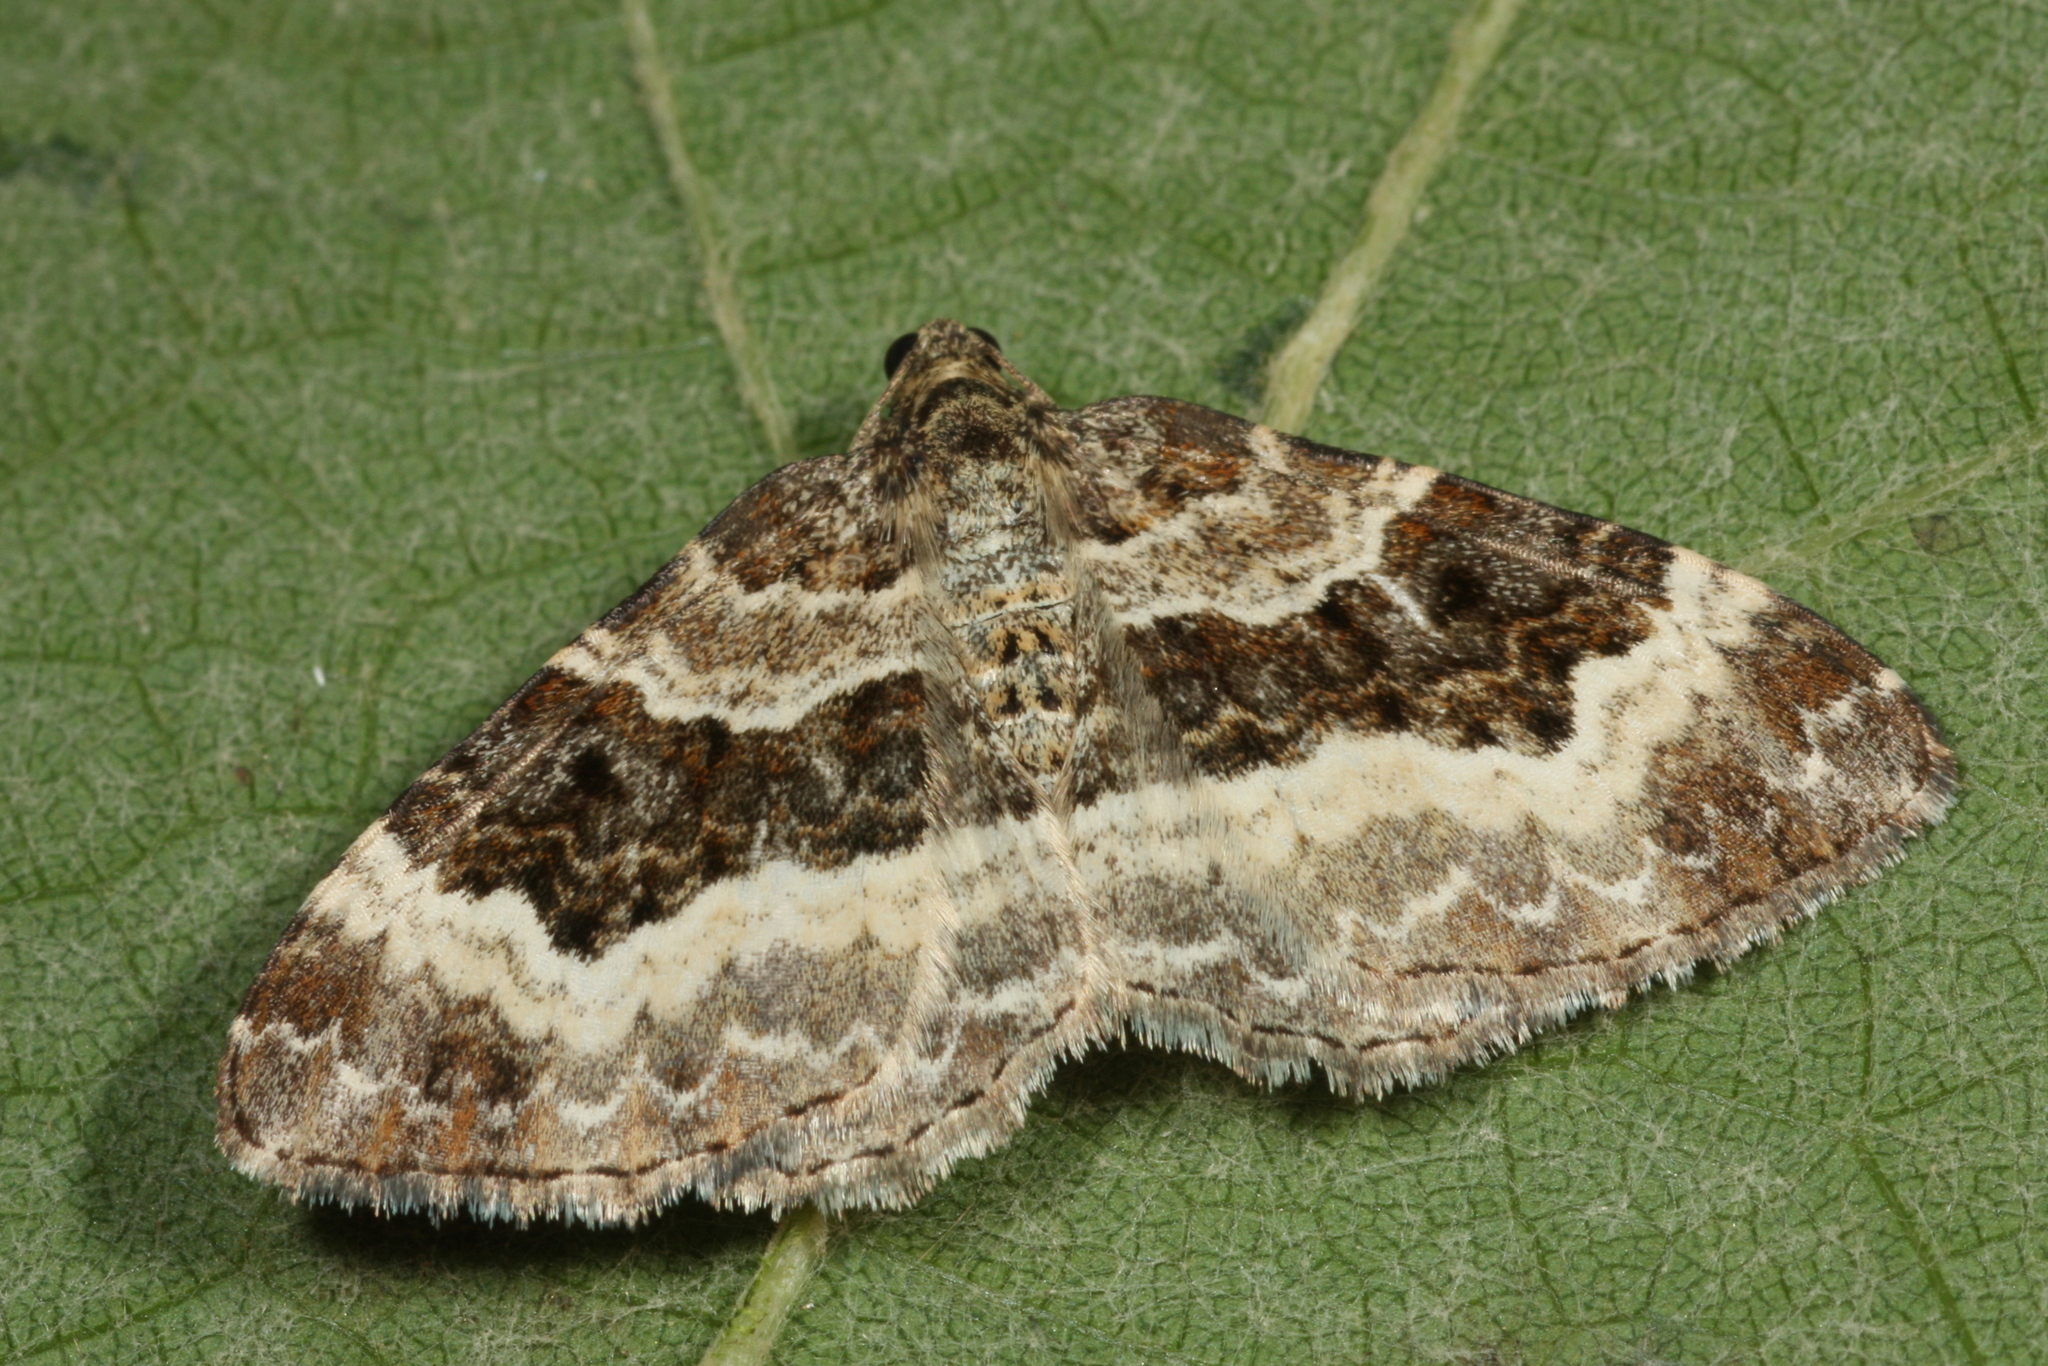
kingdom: Animalia
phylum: Arthropoda
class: Insecta
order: Lepidoptera
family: Geometridae
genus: Epirrhoe
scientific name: Epirrhoe alternata
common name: Common carpet
